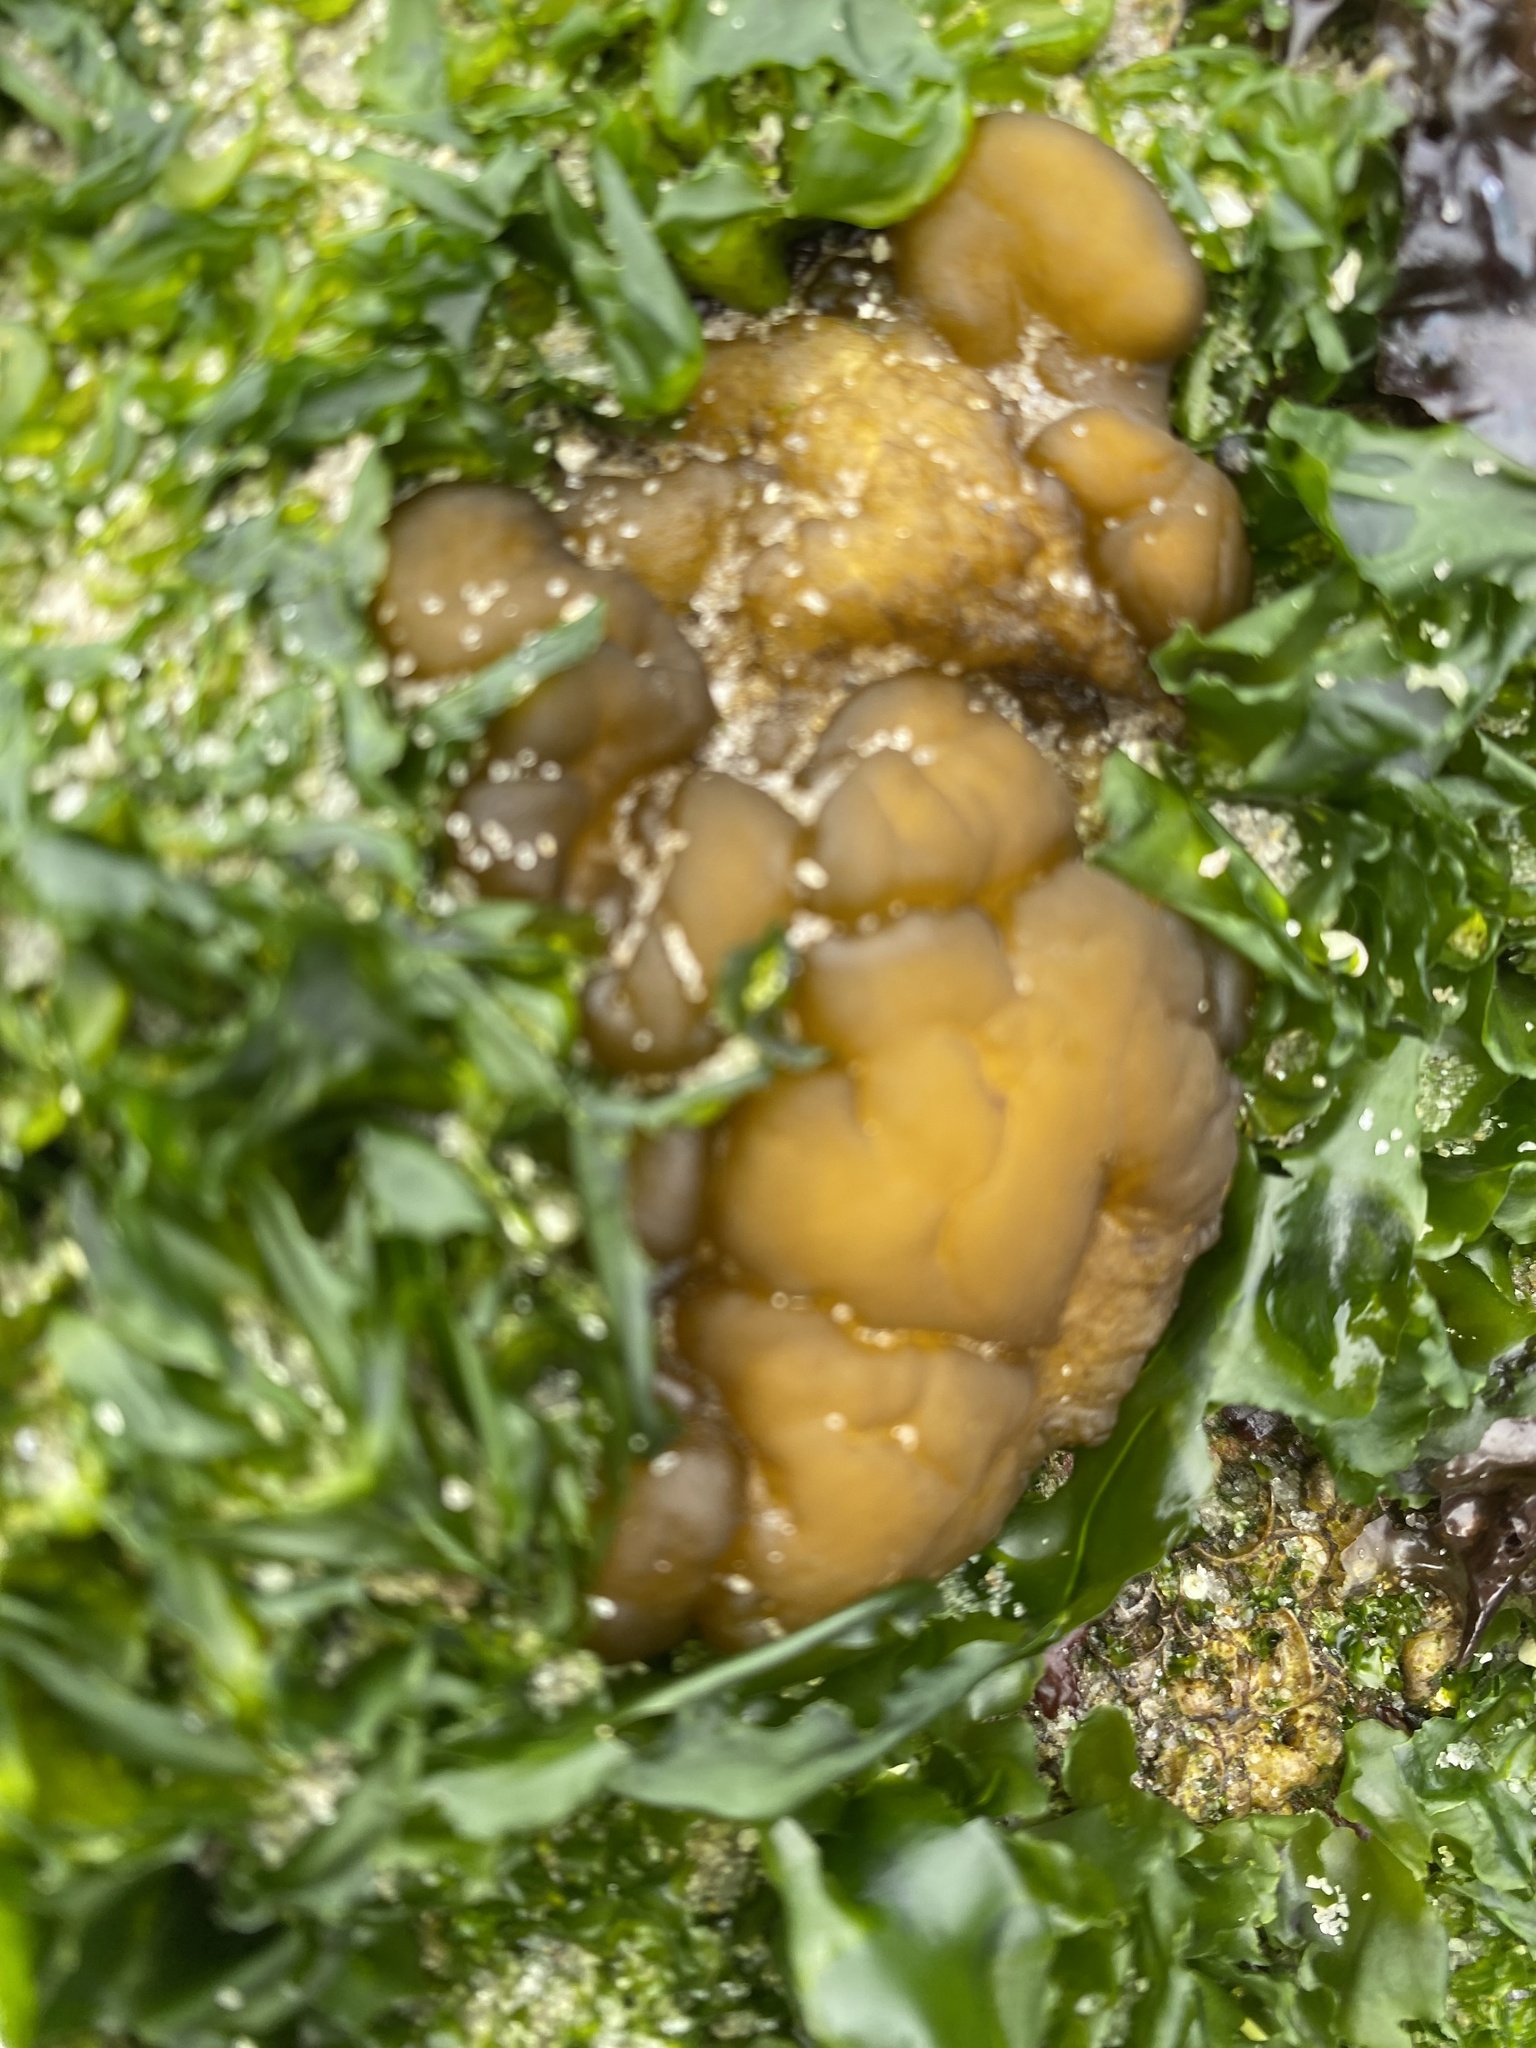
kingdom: Chromista
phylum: Ochrophyta
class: Phaeophyceae
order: Ectocarpales
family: Chordariaceae
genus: Leathesia
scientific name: Leathesia marina
